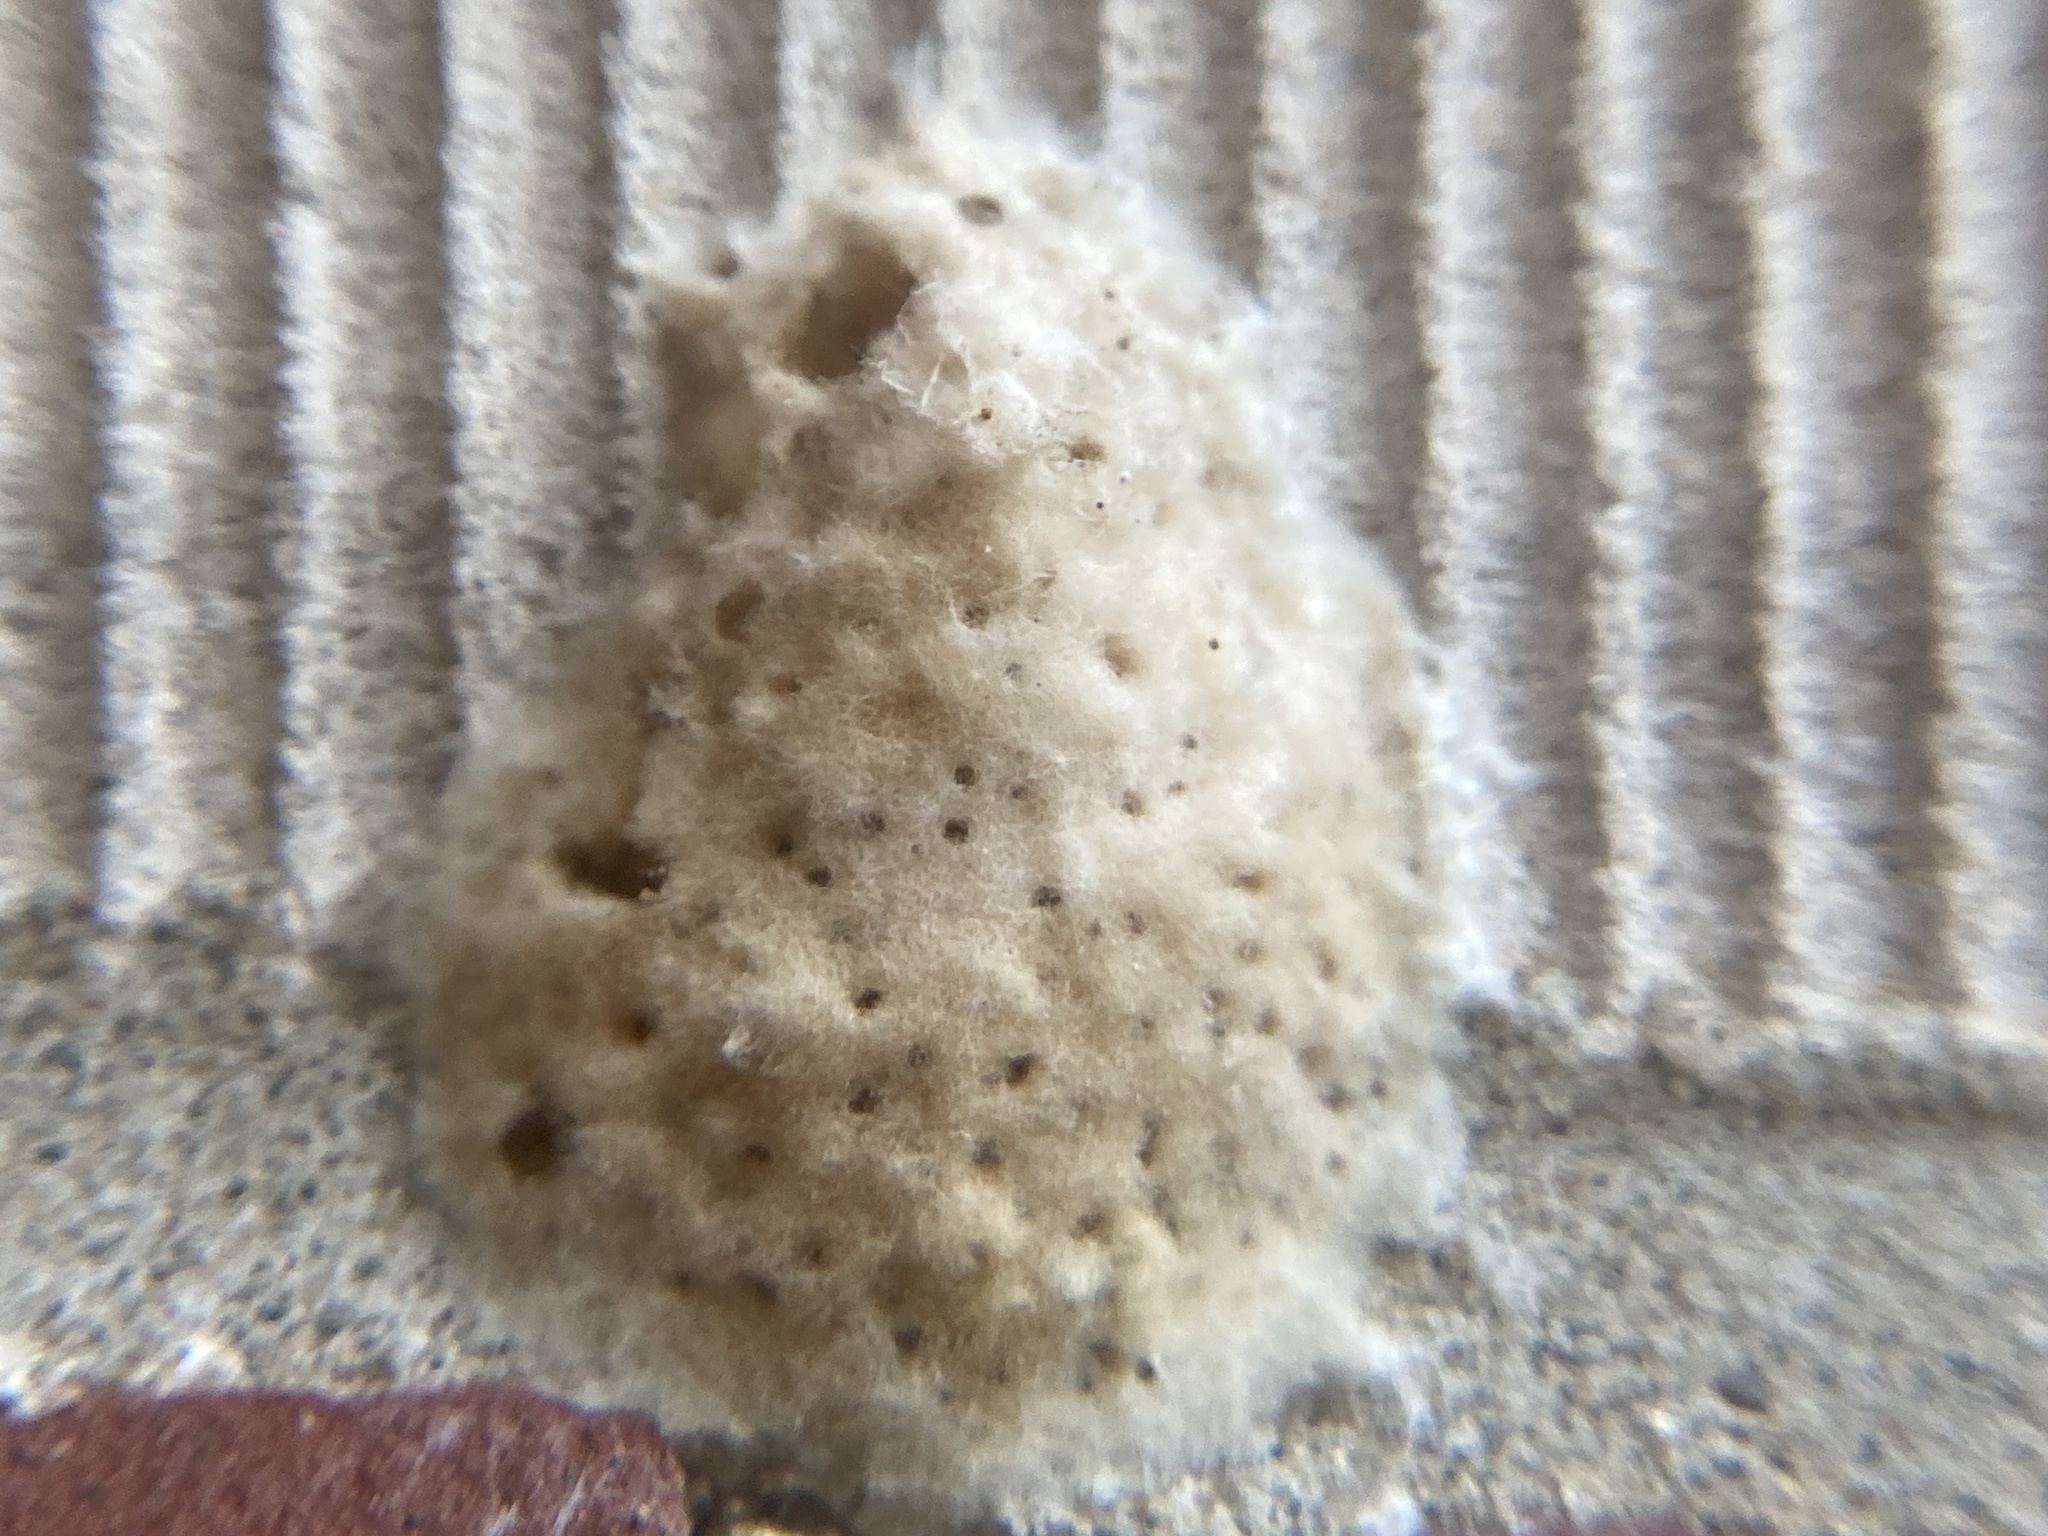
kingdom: Animalia
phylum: Arthropoda
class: Insecta
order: Lepidoptera
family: Erebidae
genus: Lymantria
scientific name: Lymantria dispar
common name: Gypsy moth
